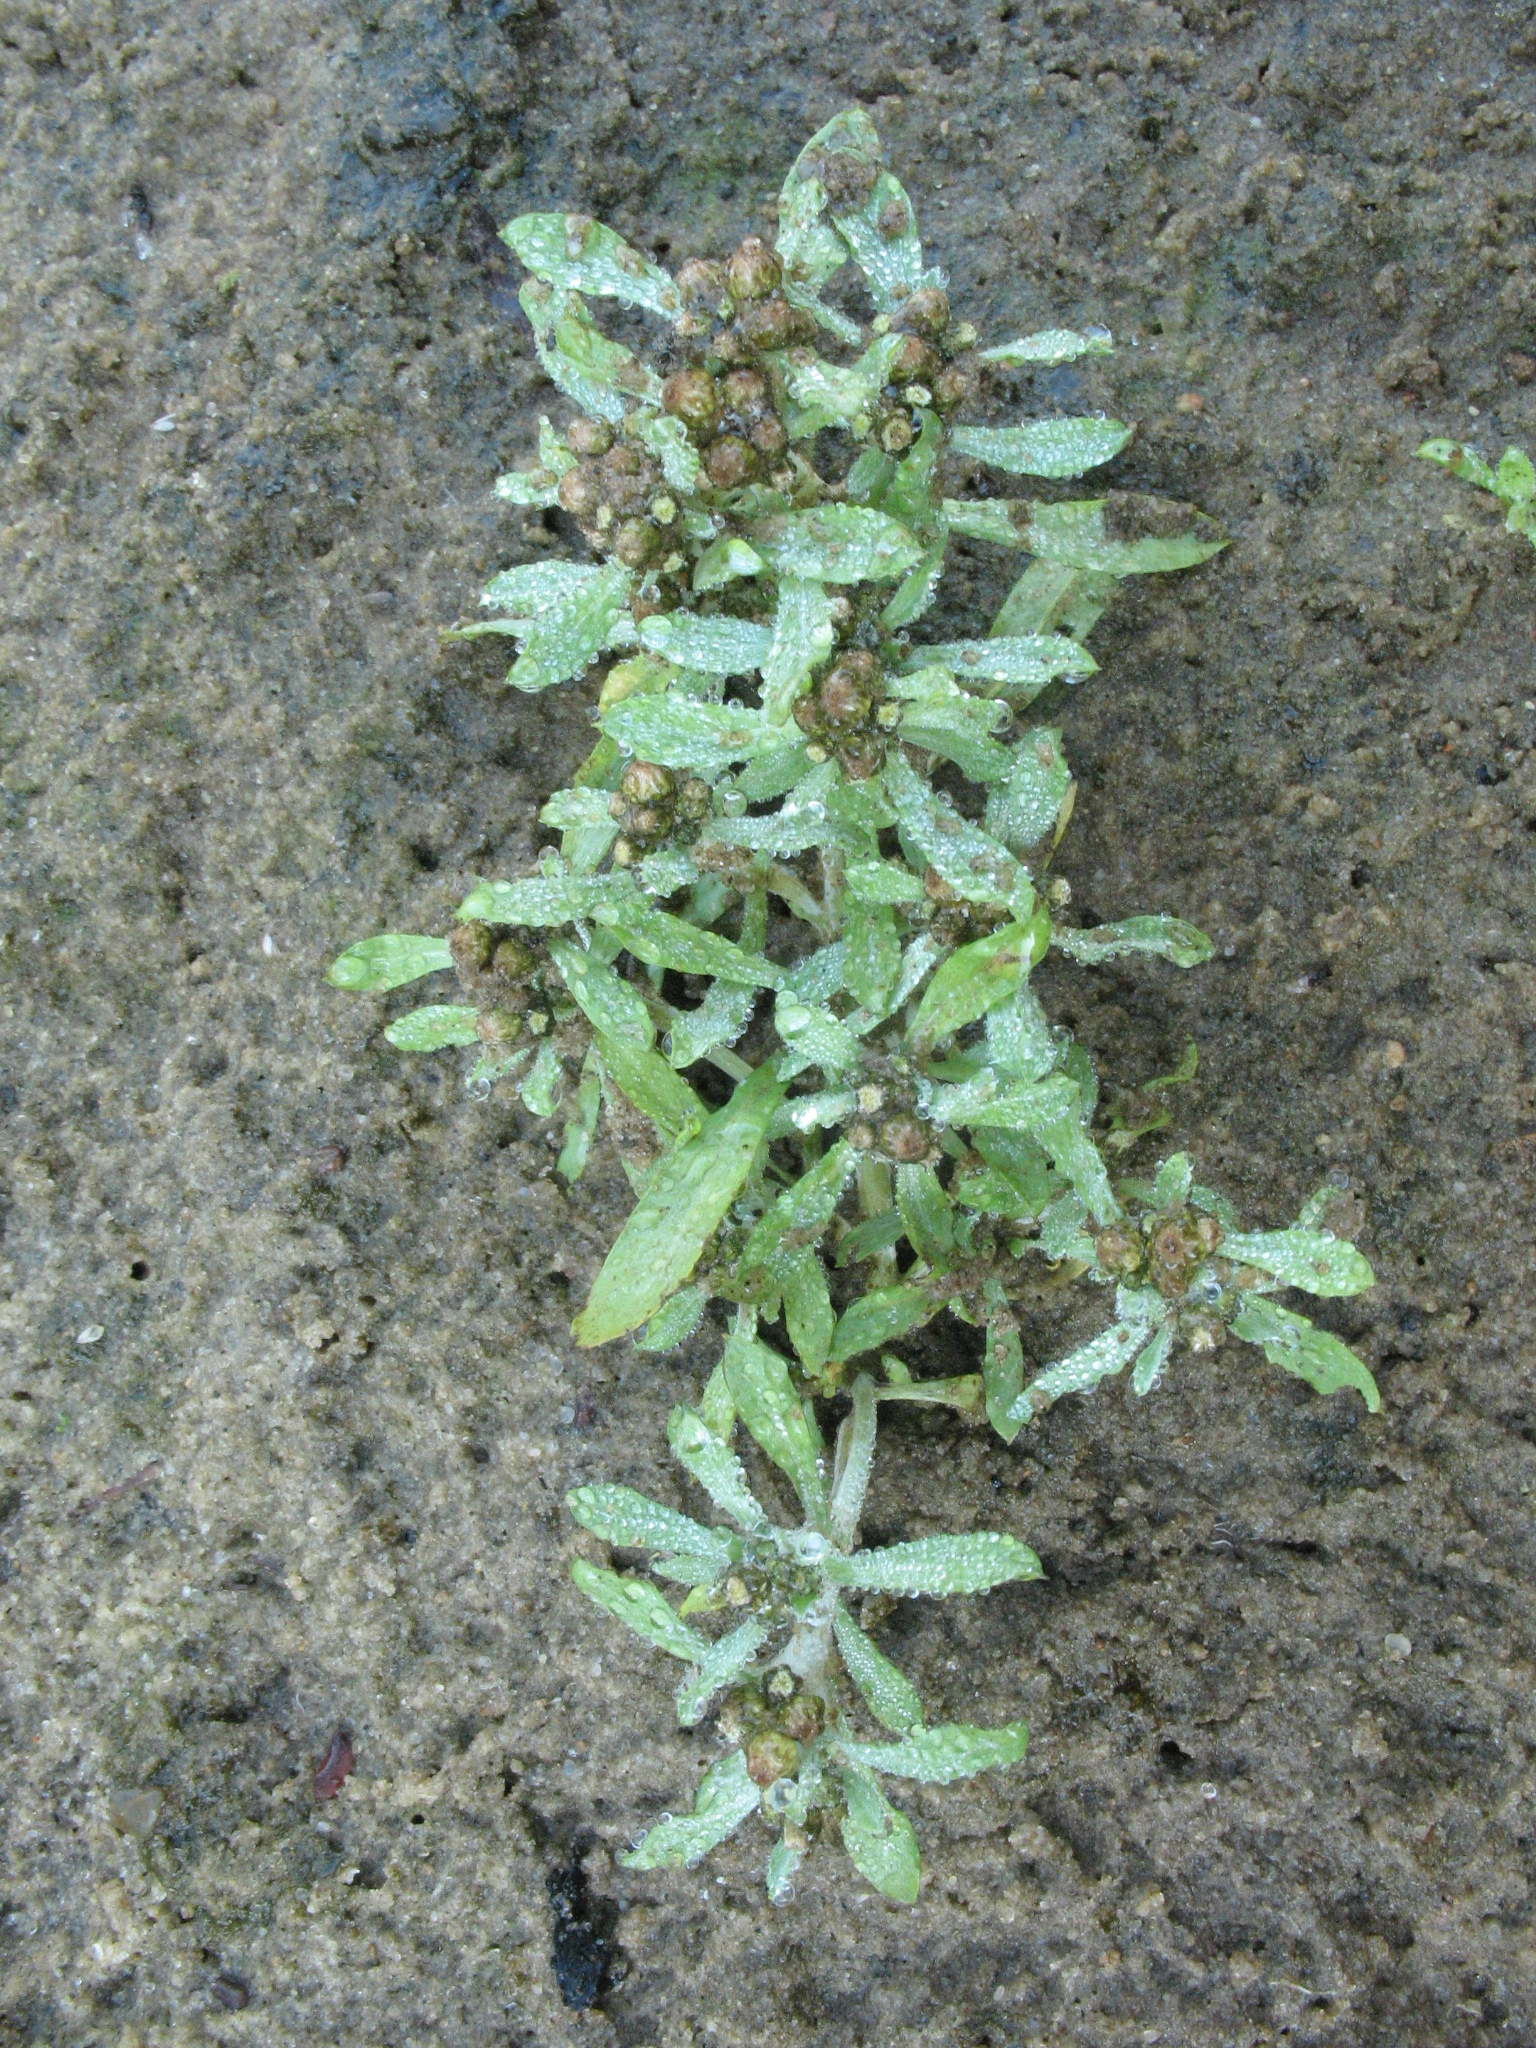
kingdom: Plantae
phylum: Tracheophyta
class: Magnoliopsida
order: Asterales
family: Asteraceae
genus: Gnaphalium
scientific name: Gnaphalium rossicum
